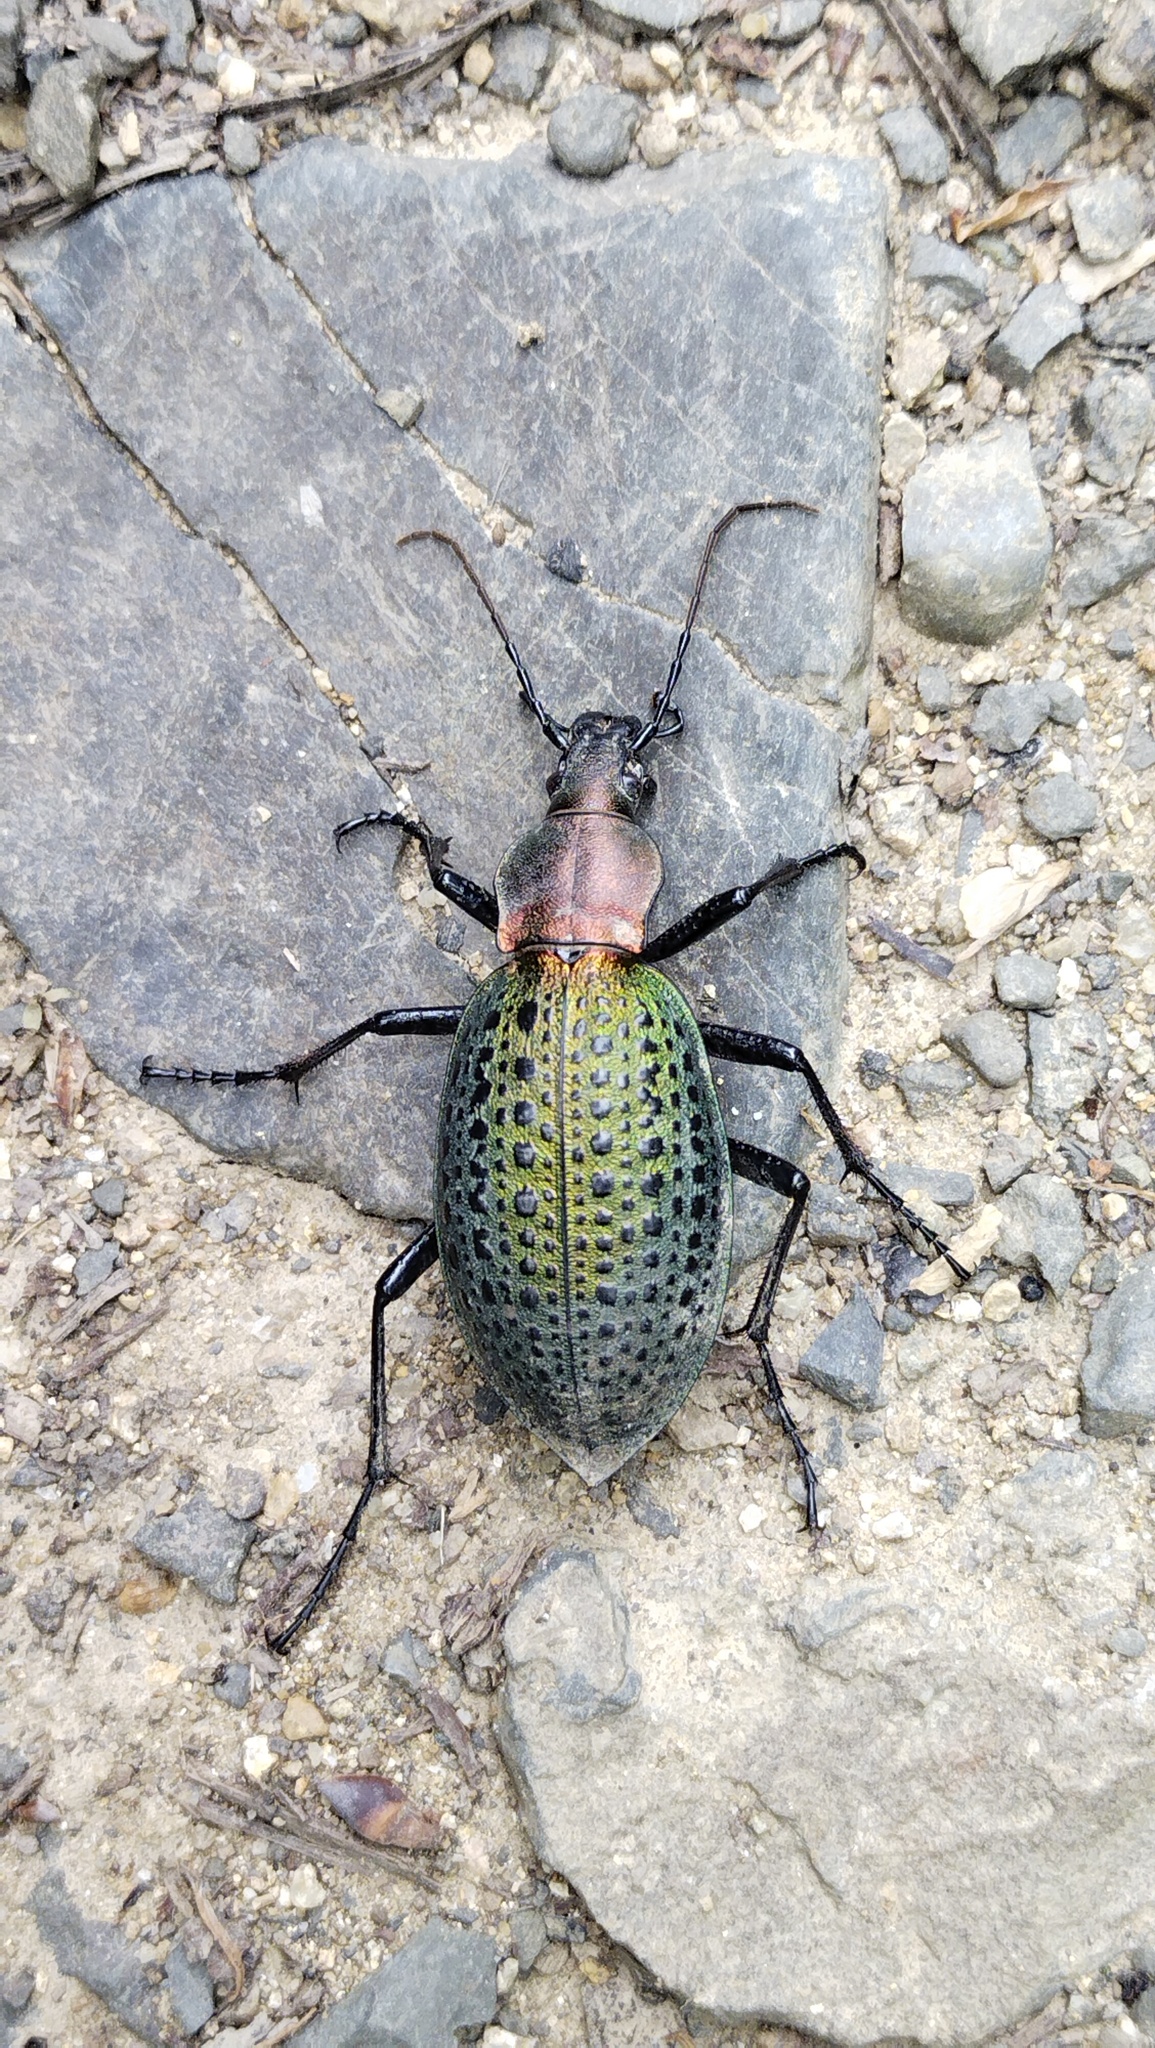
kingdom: Animalia
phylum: Arthropoda
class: Insecta
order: Coleoptera
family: Carabidae
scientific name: Carabidae
